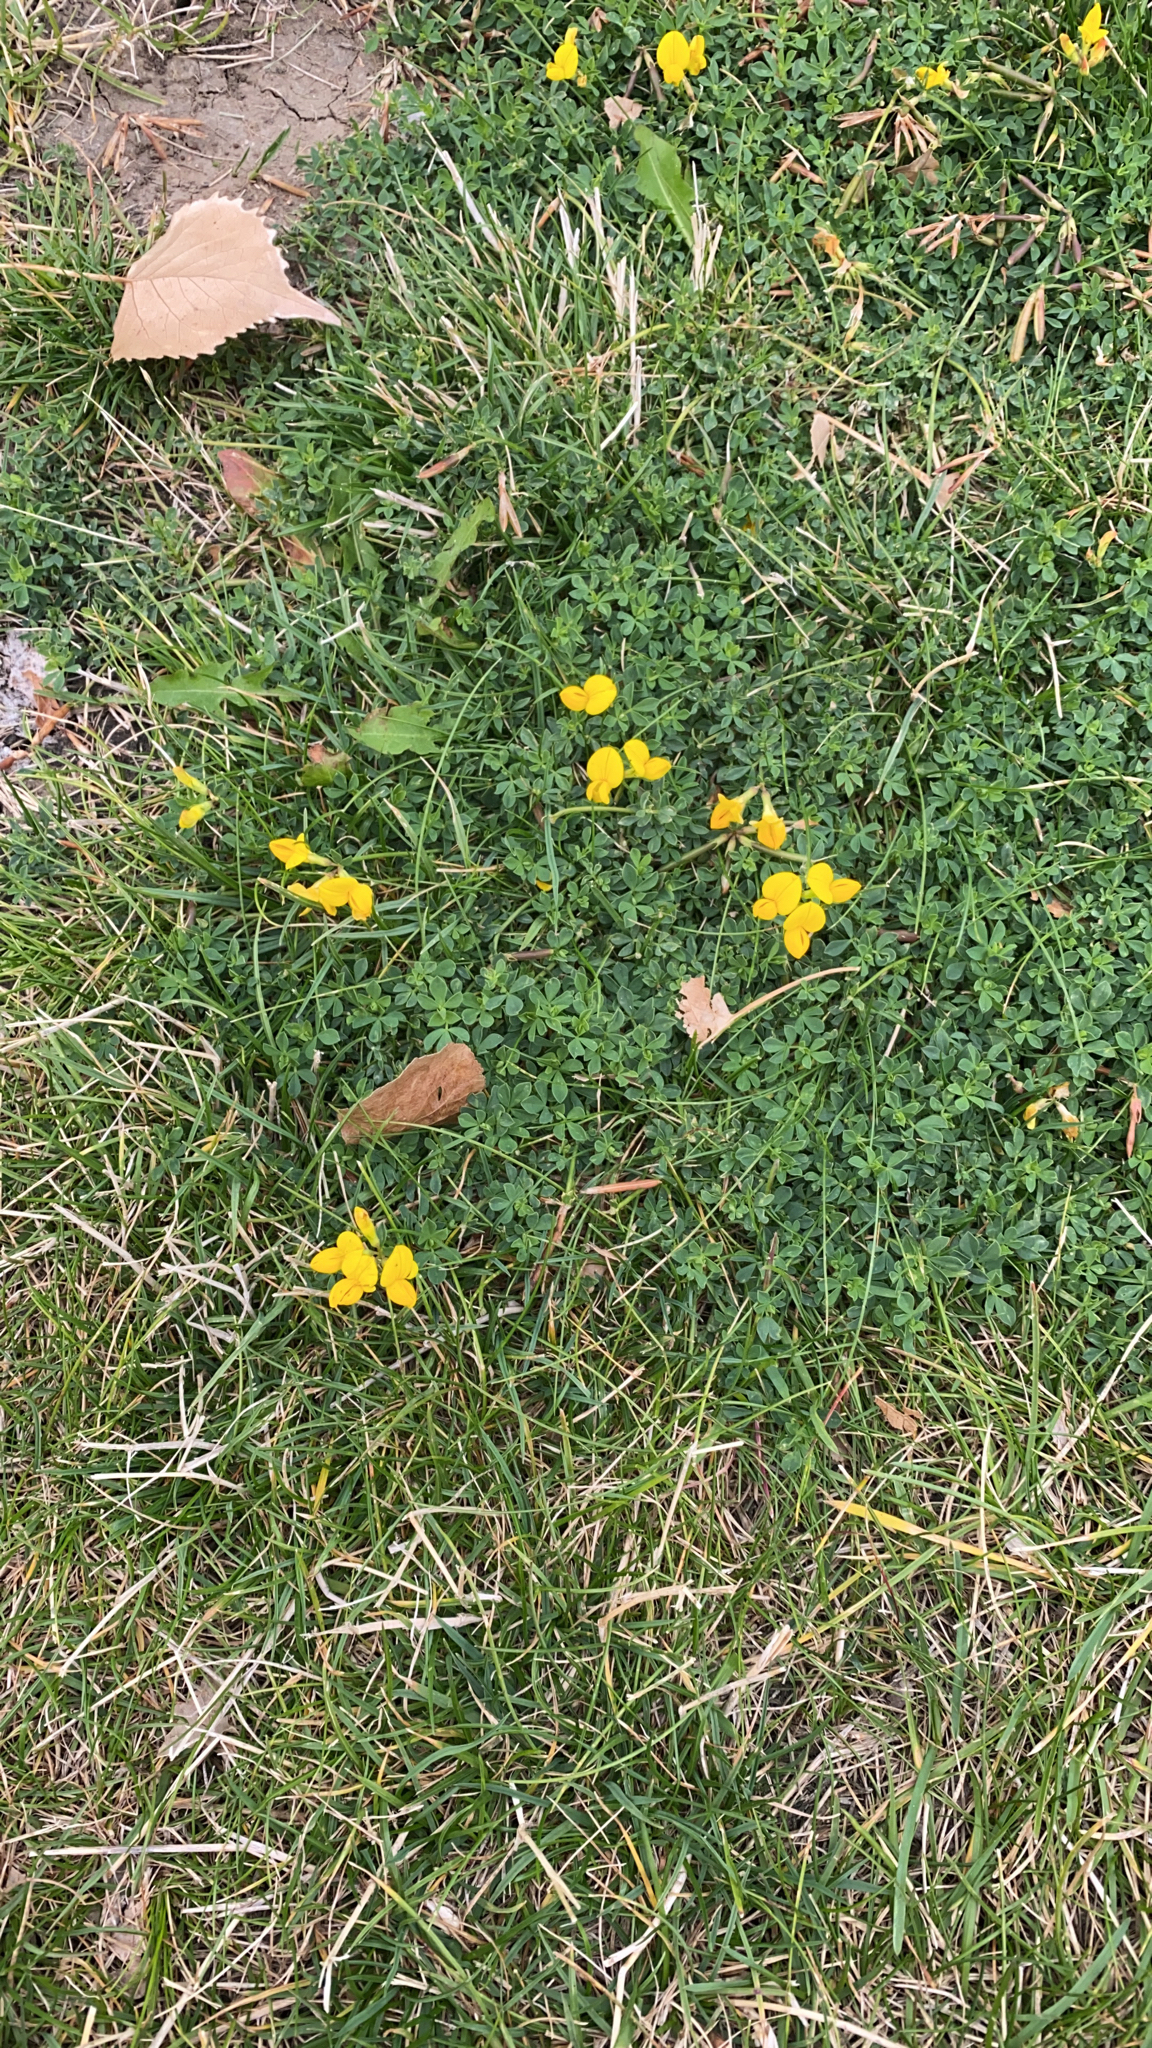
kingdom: Plantae
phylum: Tracheophyta
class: Magnoliopsida
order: Fabales
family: Fabaceae
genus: Lotus
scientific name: Lotus corniculatus
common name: Common bird's-foot-trefoil
